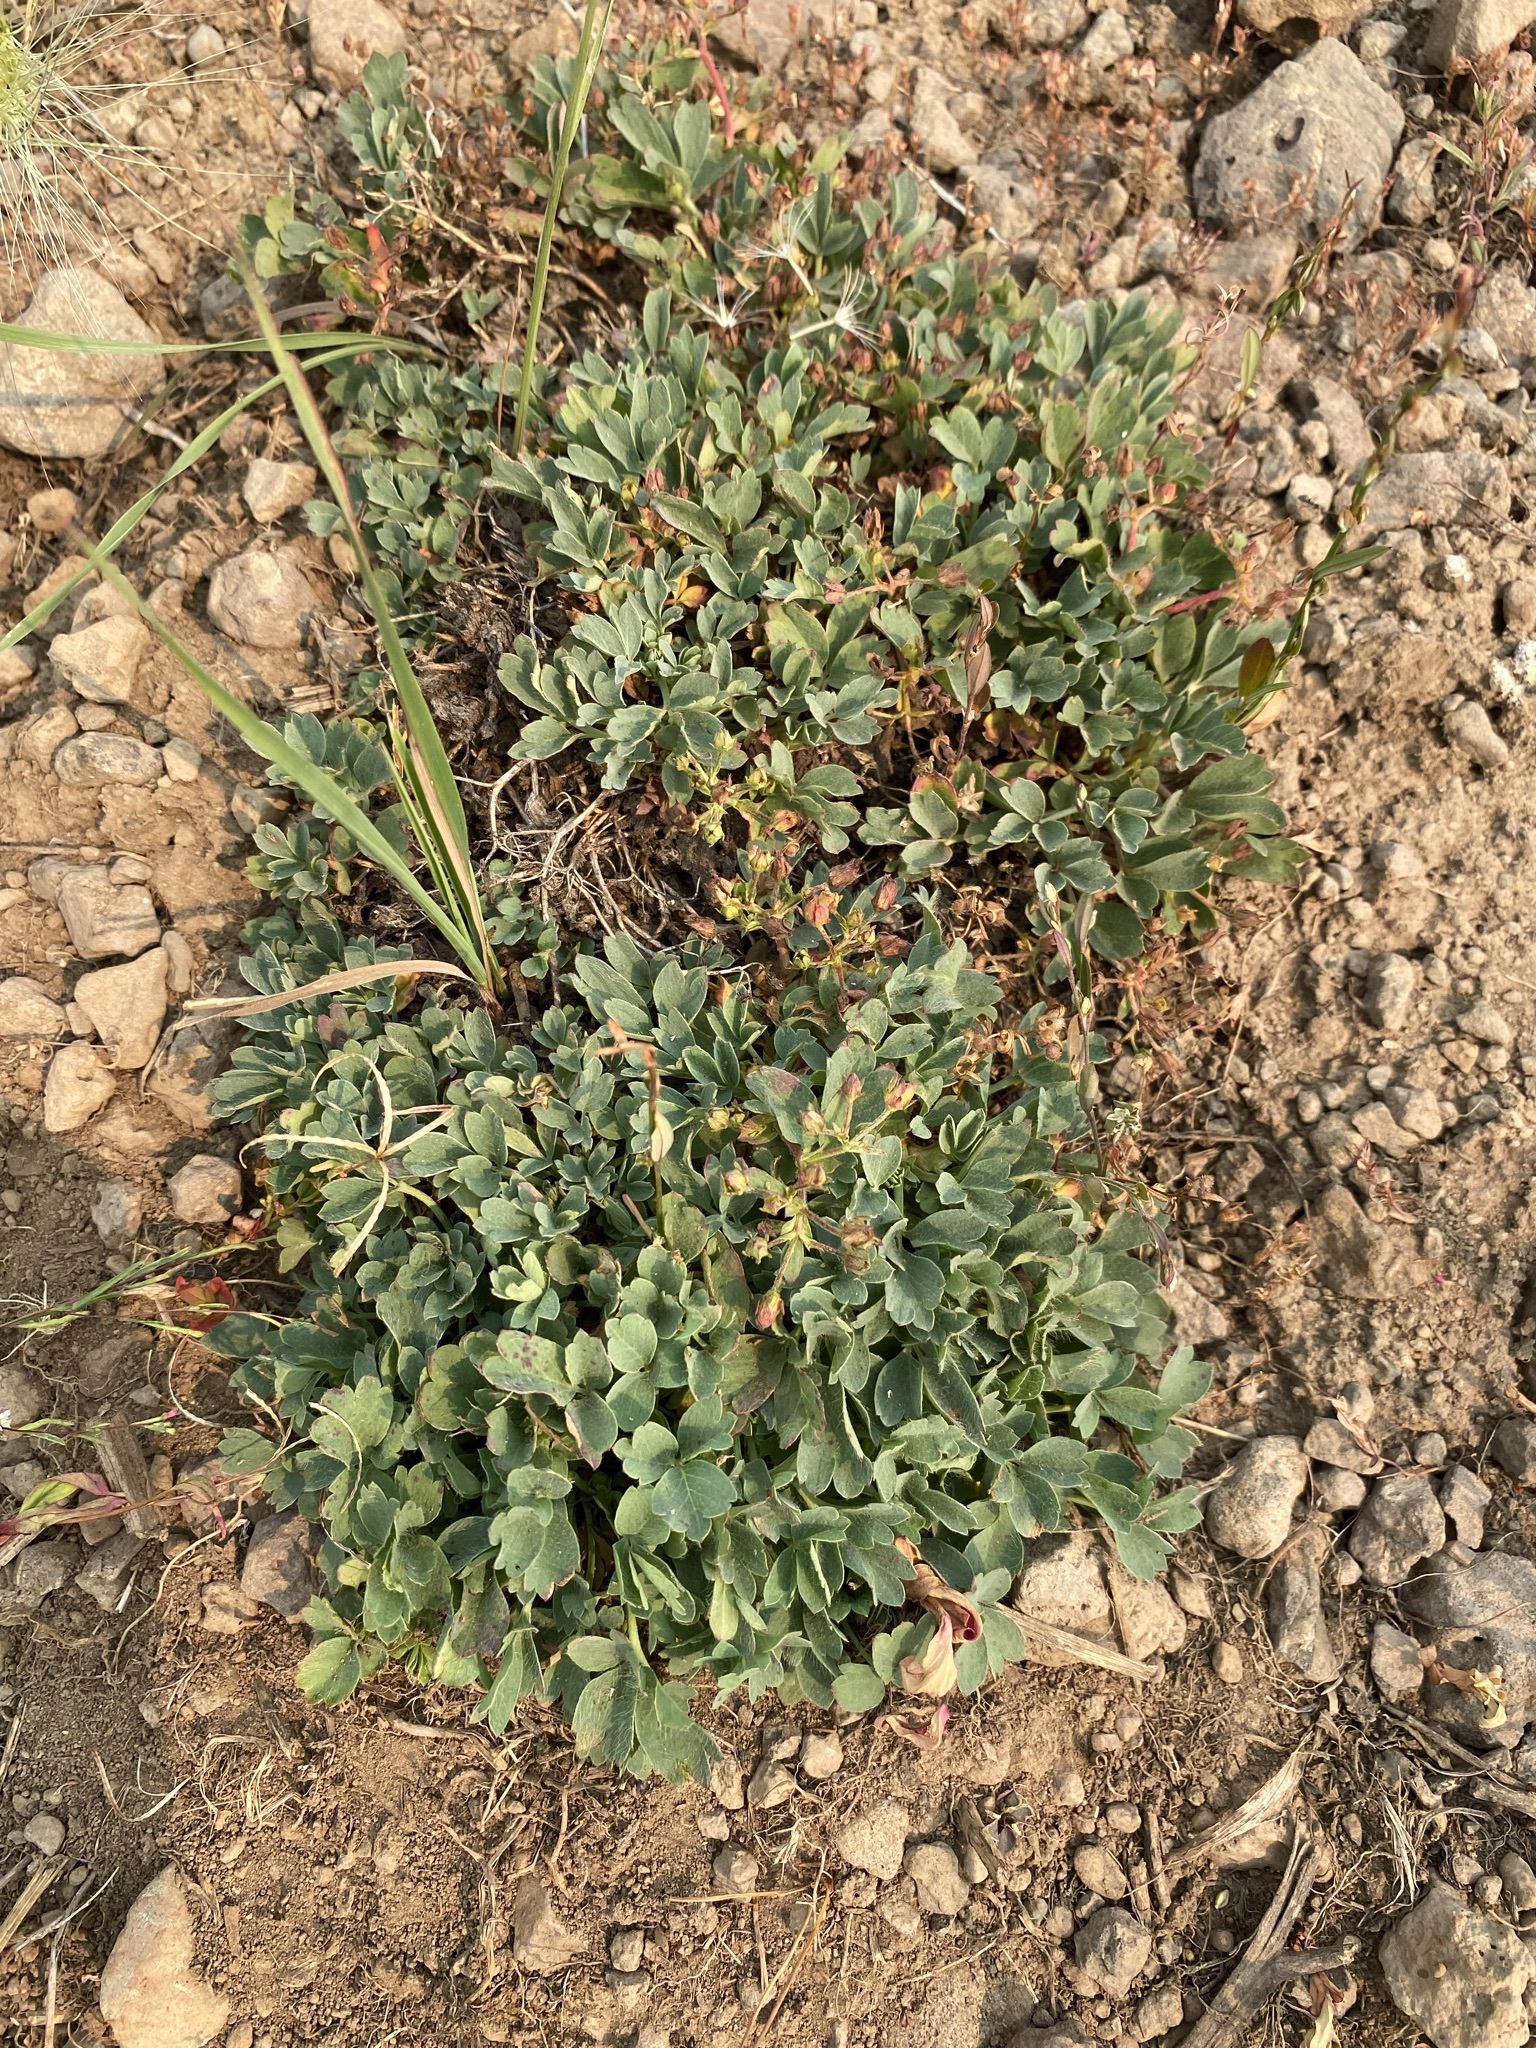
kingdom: Plantae
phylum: Tracheophyta
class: Magnoliopsida
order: Rosales
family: Rosaceae
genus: Sibbaldia
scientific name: Sibbaldia procumbens
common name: Creeping sibbaldia
